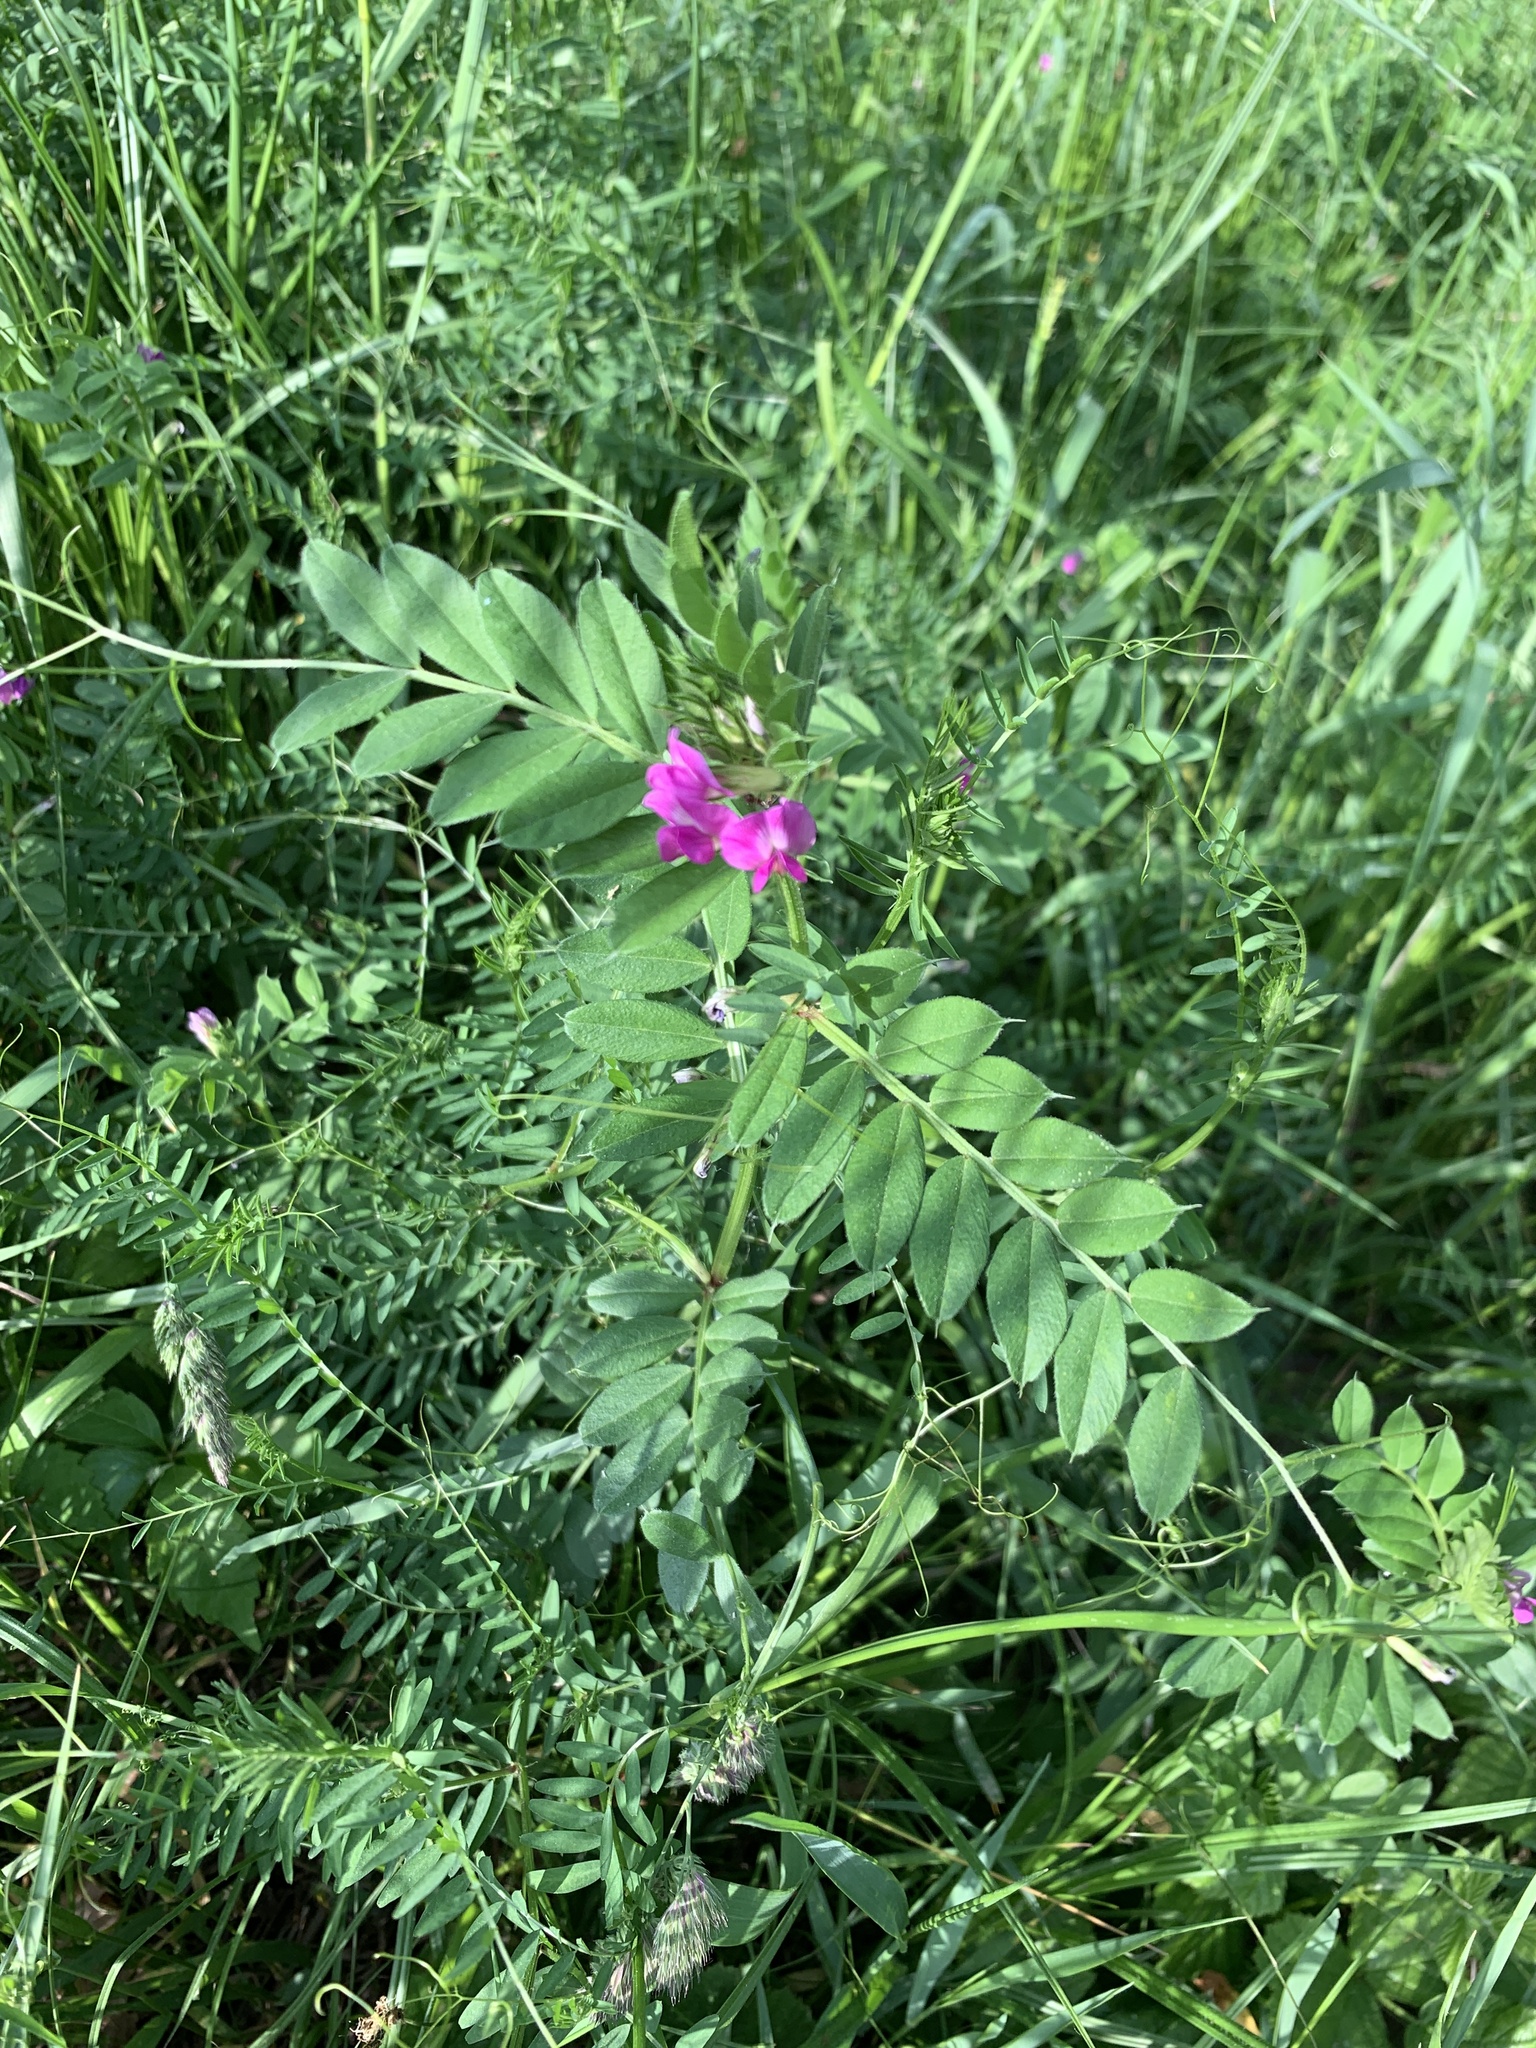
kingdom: Plantae
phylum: Tracheophyta
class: Magnoliopsida
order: Fabales
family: Fabaceae
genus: Vicia
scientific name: Vicia sativa
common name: Garden vetch
